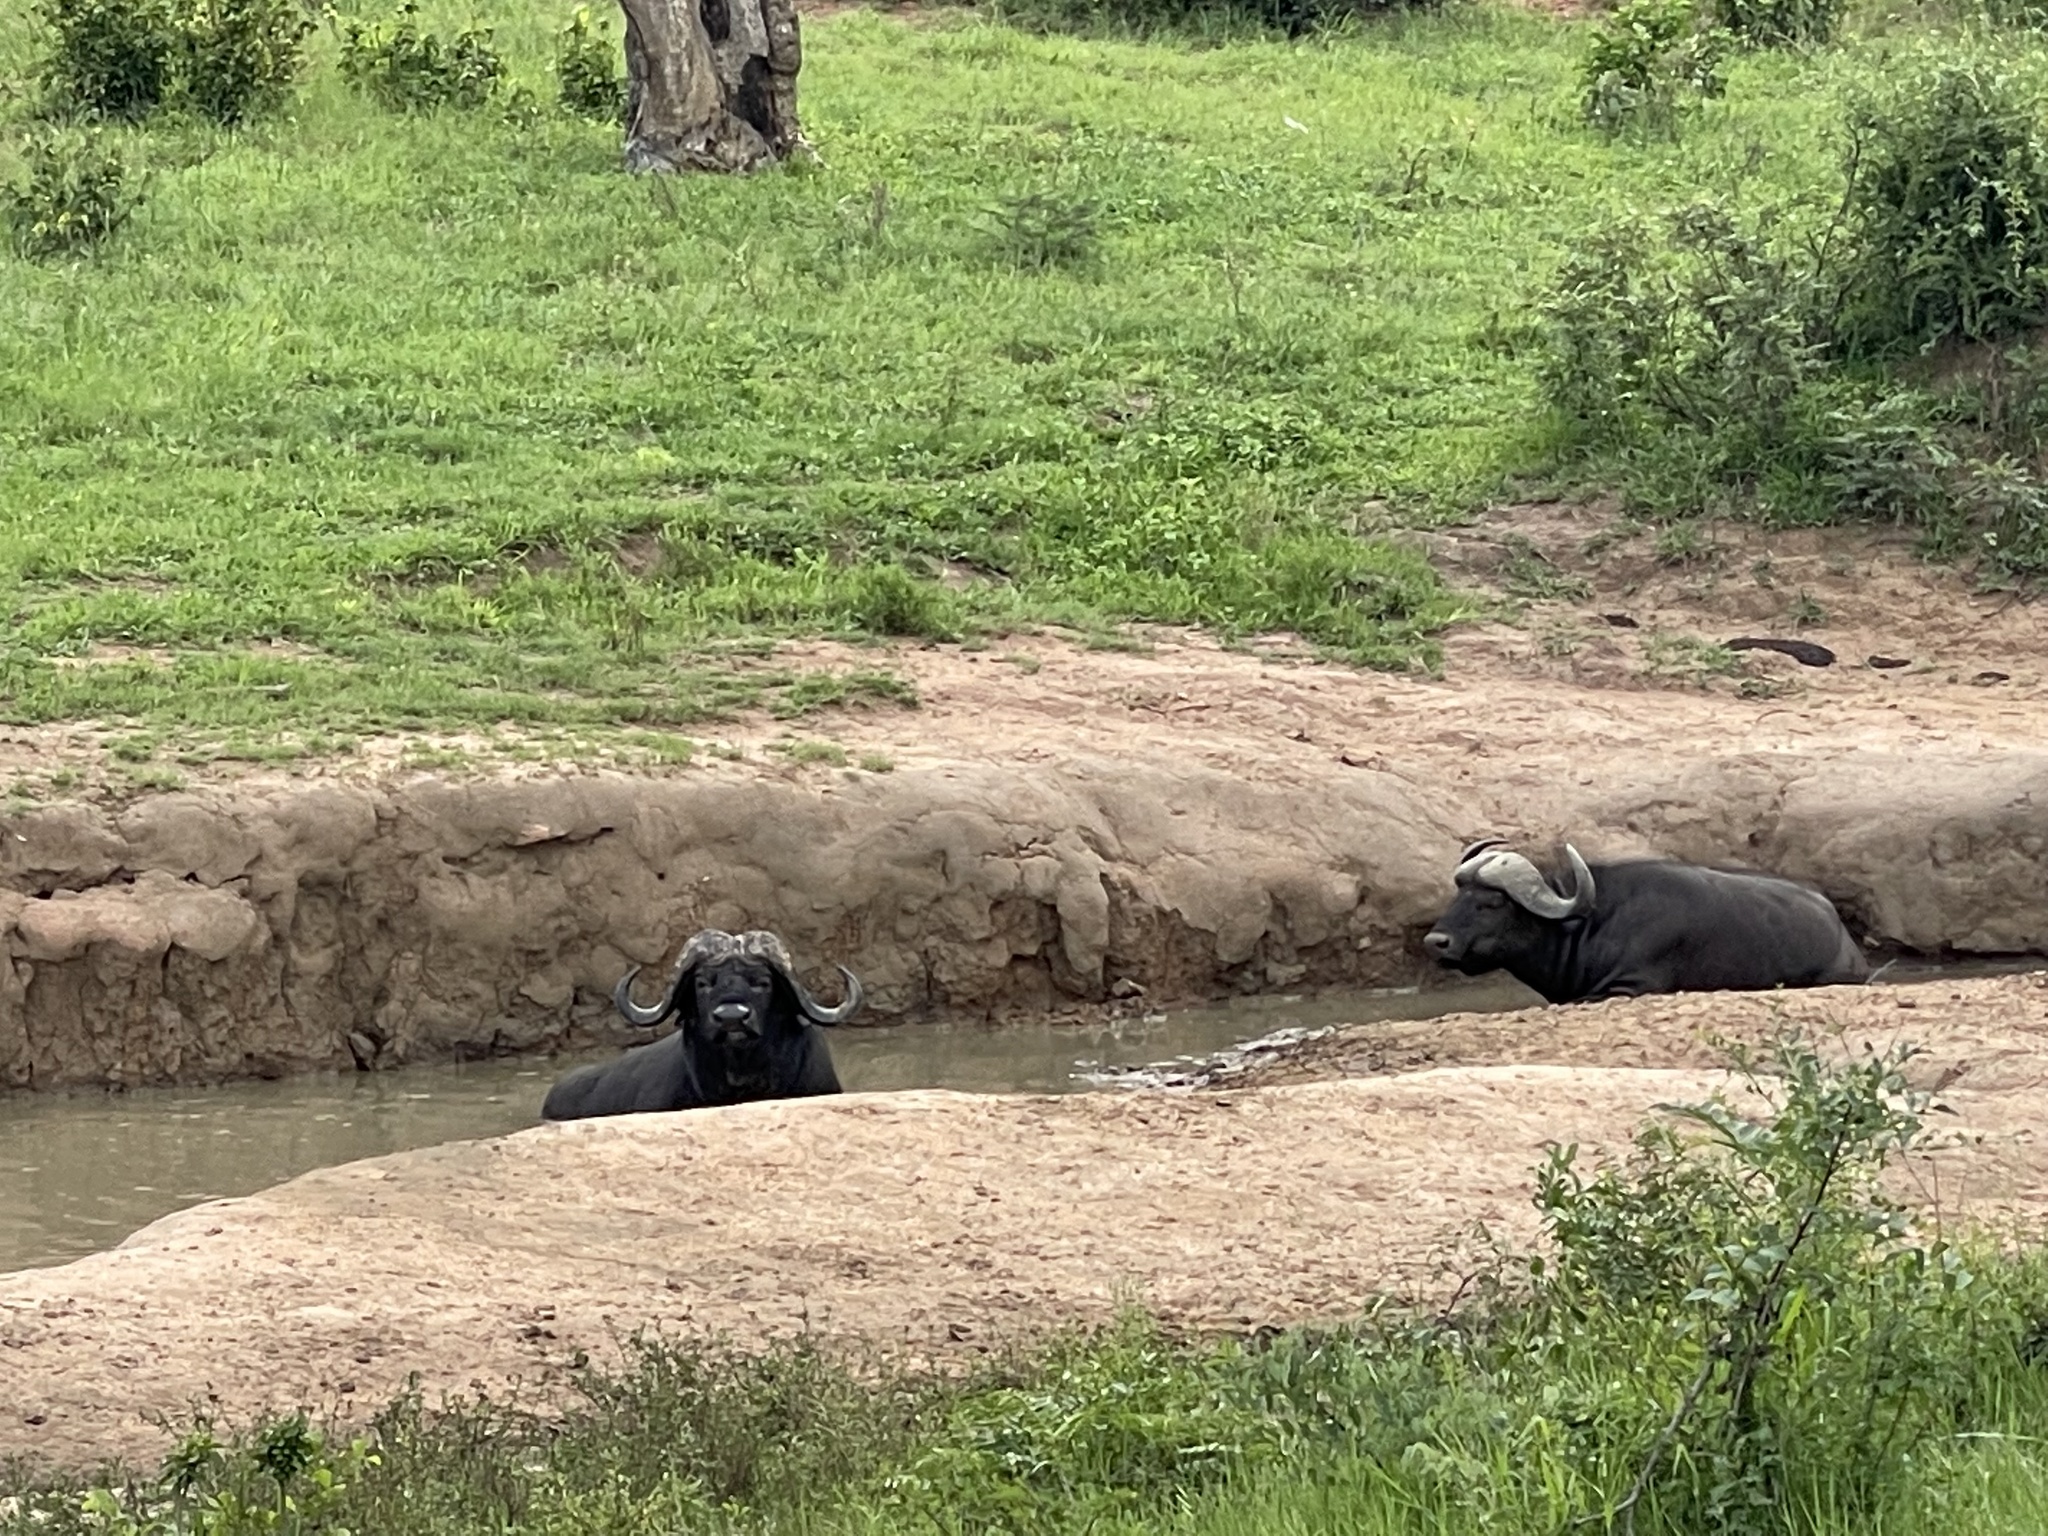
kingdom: Animalia
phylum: Chordata
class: Mammalia
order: Artiodactyla
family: Bovidae
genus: Syncerus
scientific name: Syncerus caffer
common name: African buffalo
